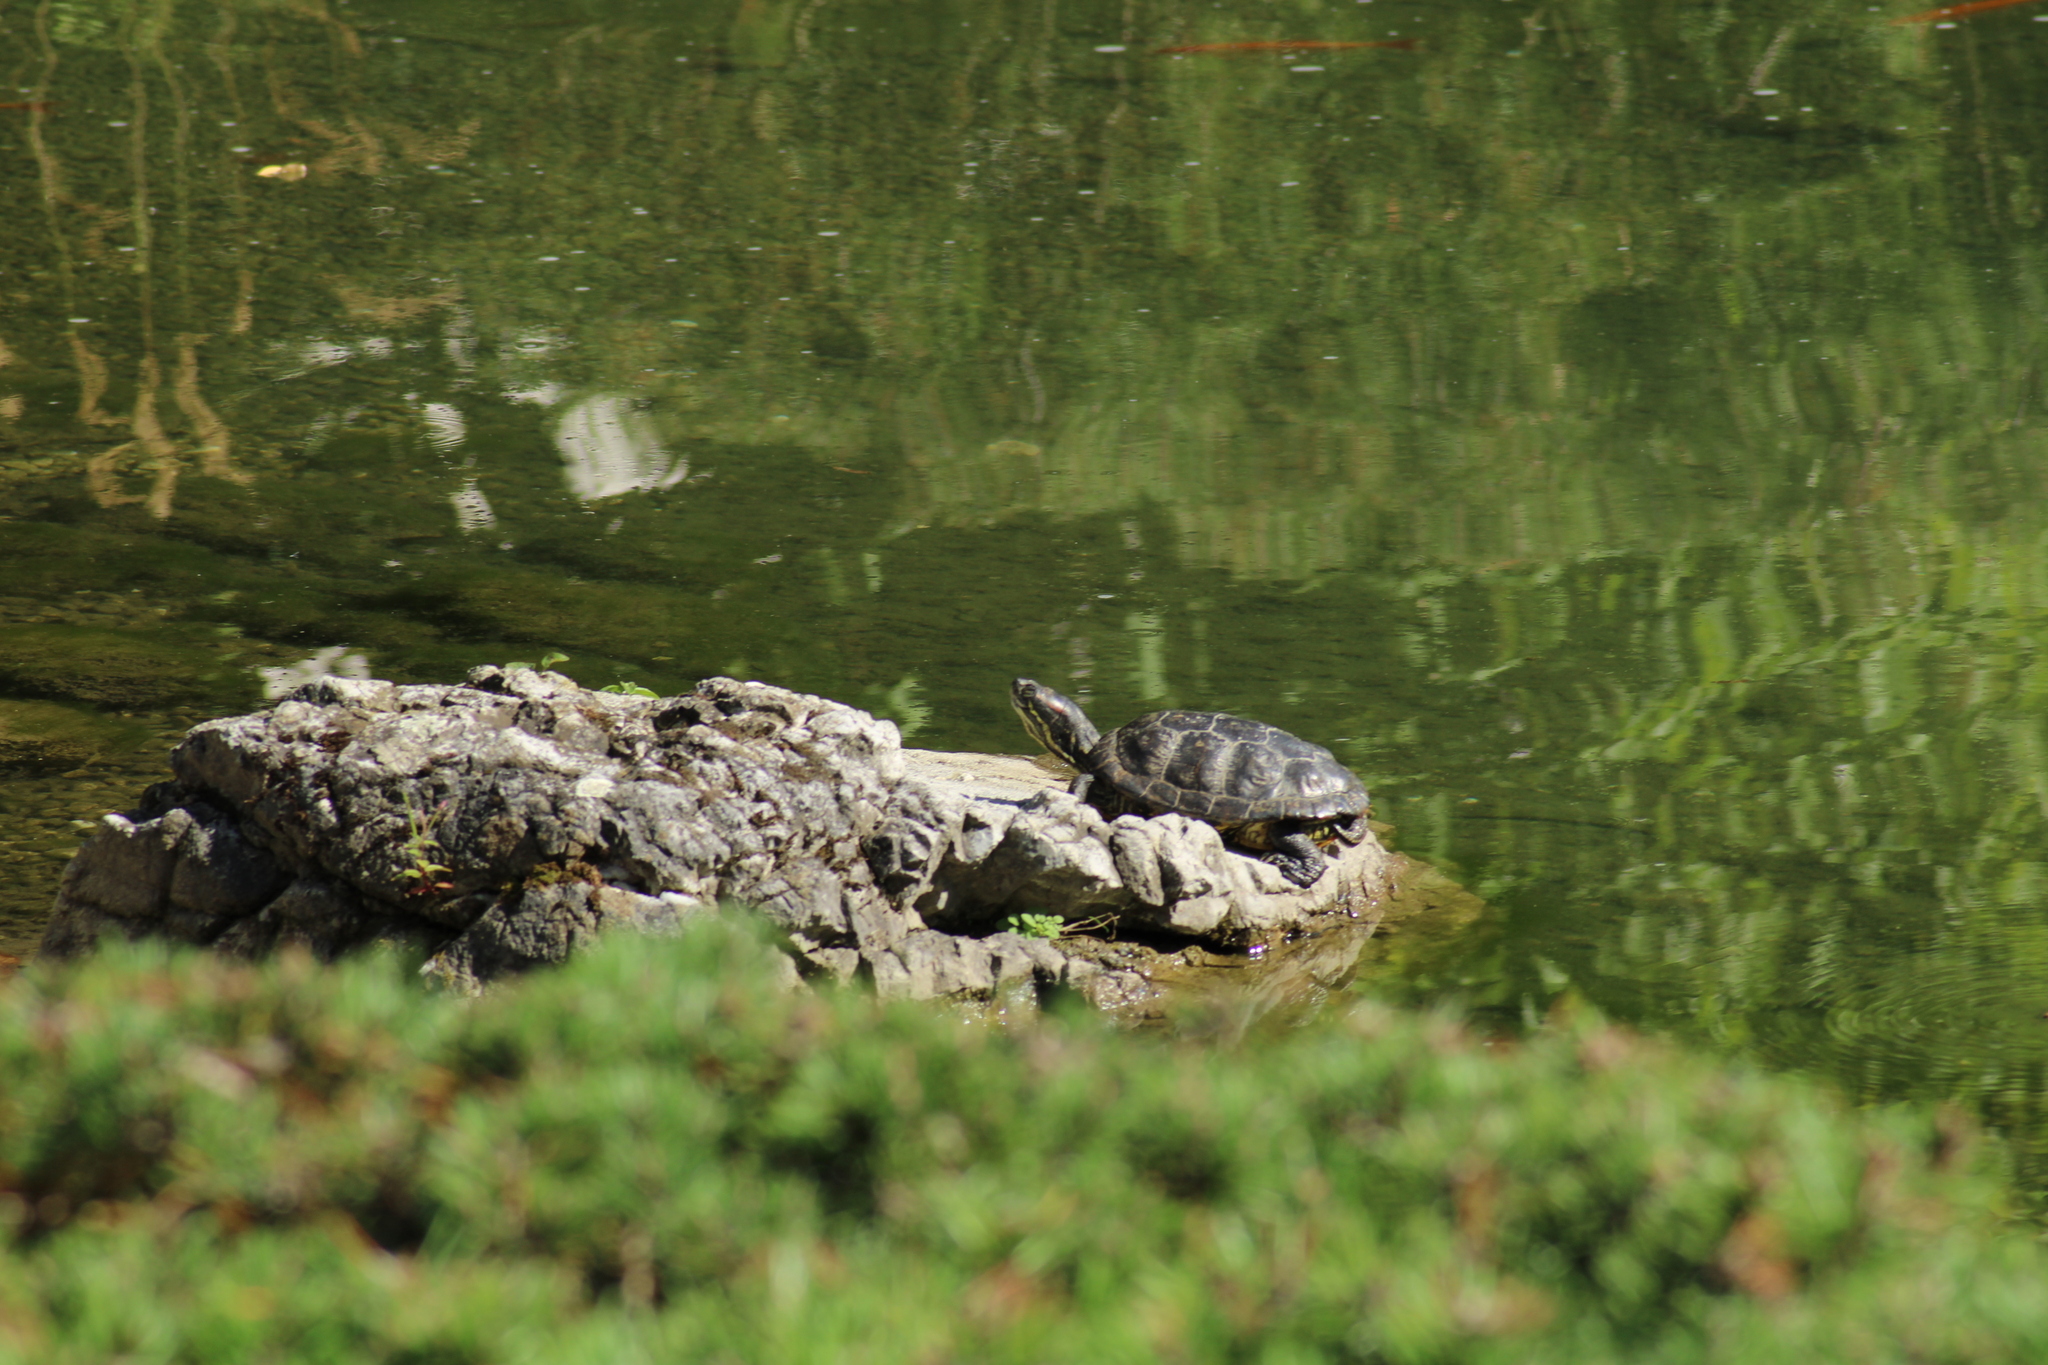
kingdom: Animalia
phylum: Chordata
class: Testudines
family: Emydidae
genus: Trachemys
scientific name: Trachemys scripta
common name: Slider
